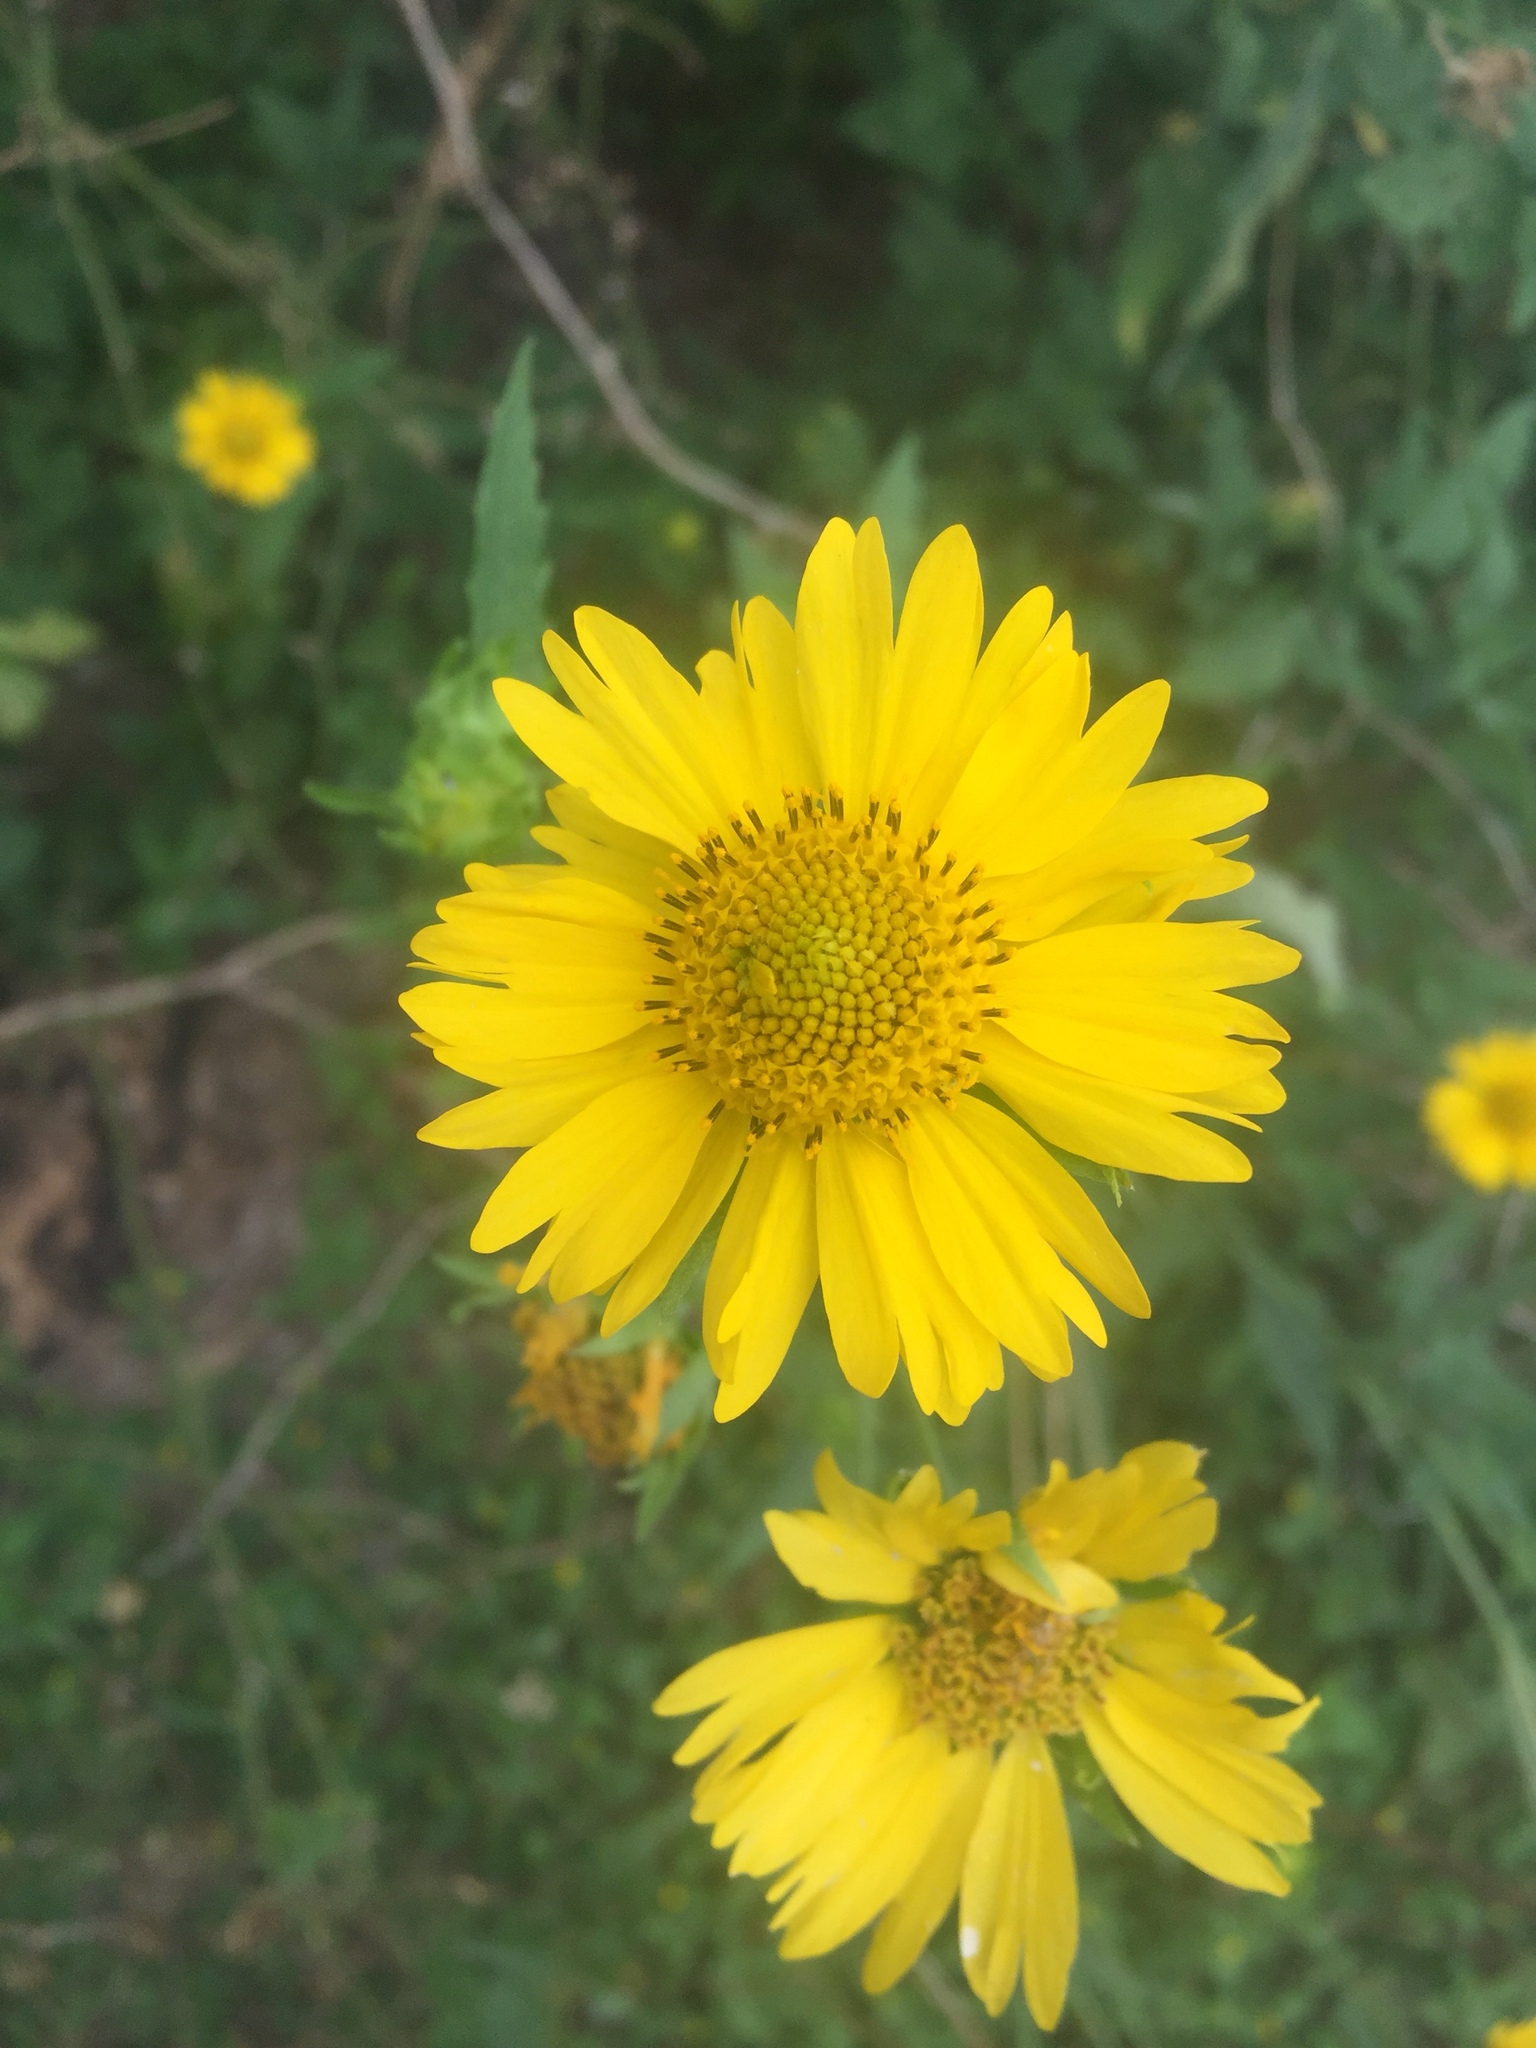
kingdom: Plantae
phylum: Tracheophyta
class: Magnoliopsida
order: Asterales
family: Asteraceae
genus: Verbesina
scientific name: Verbesina encelioides
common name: Golden crownbeard
